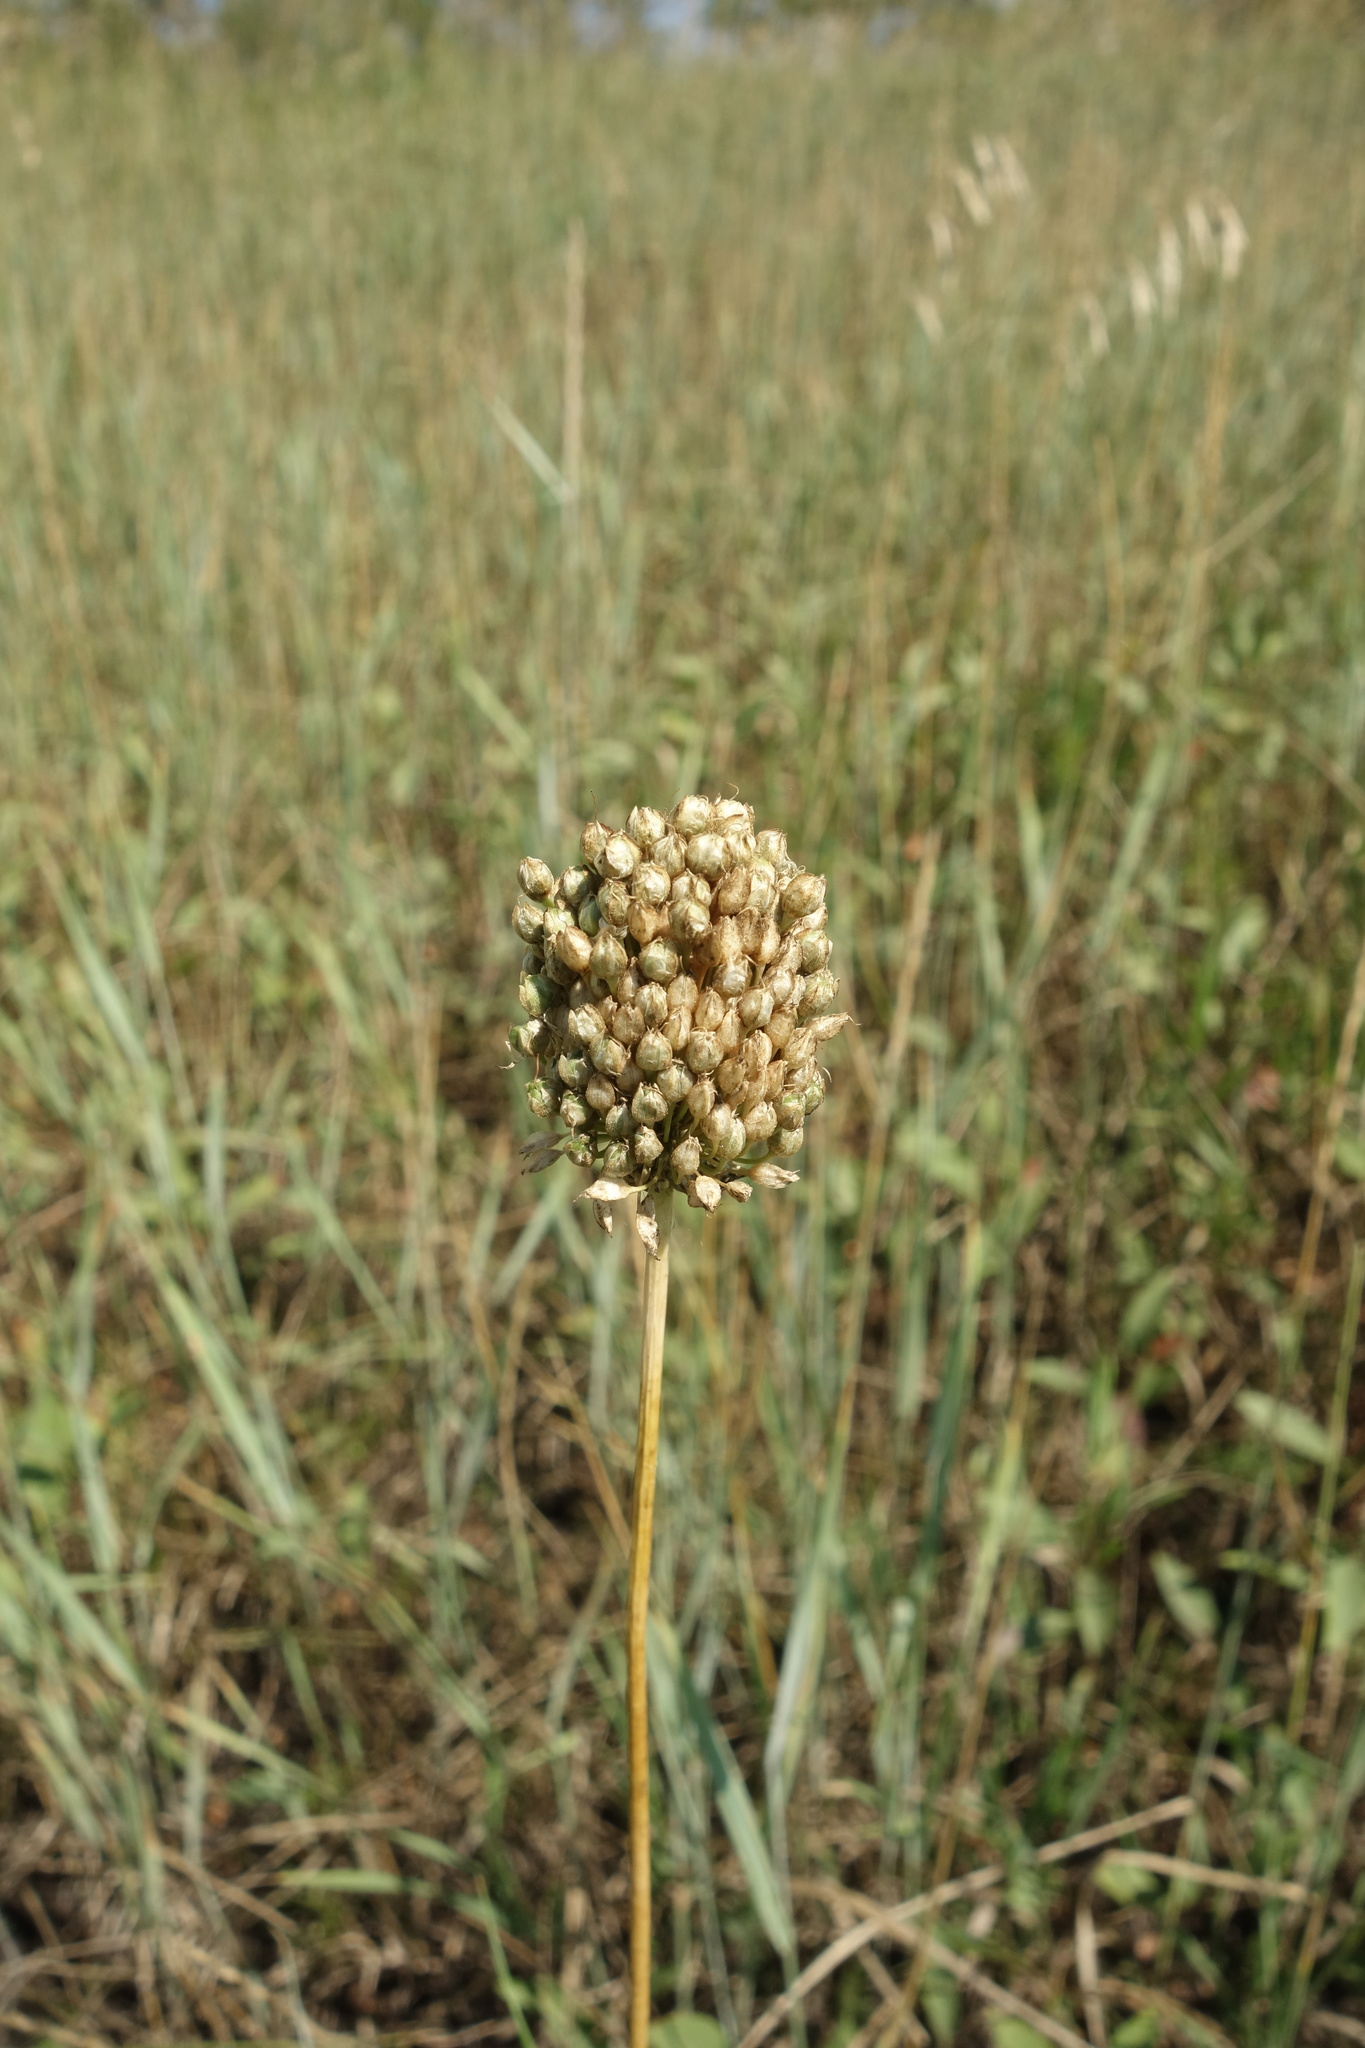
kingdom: Plantae
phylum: Tracheophyta
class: Liliopsida
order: Asparagales
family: Amaryllidaceae
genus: Allium
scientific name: Allium rotundum
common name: Sand leek
